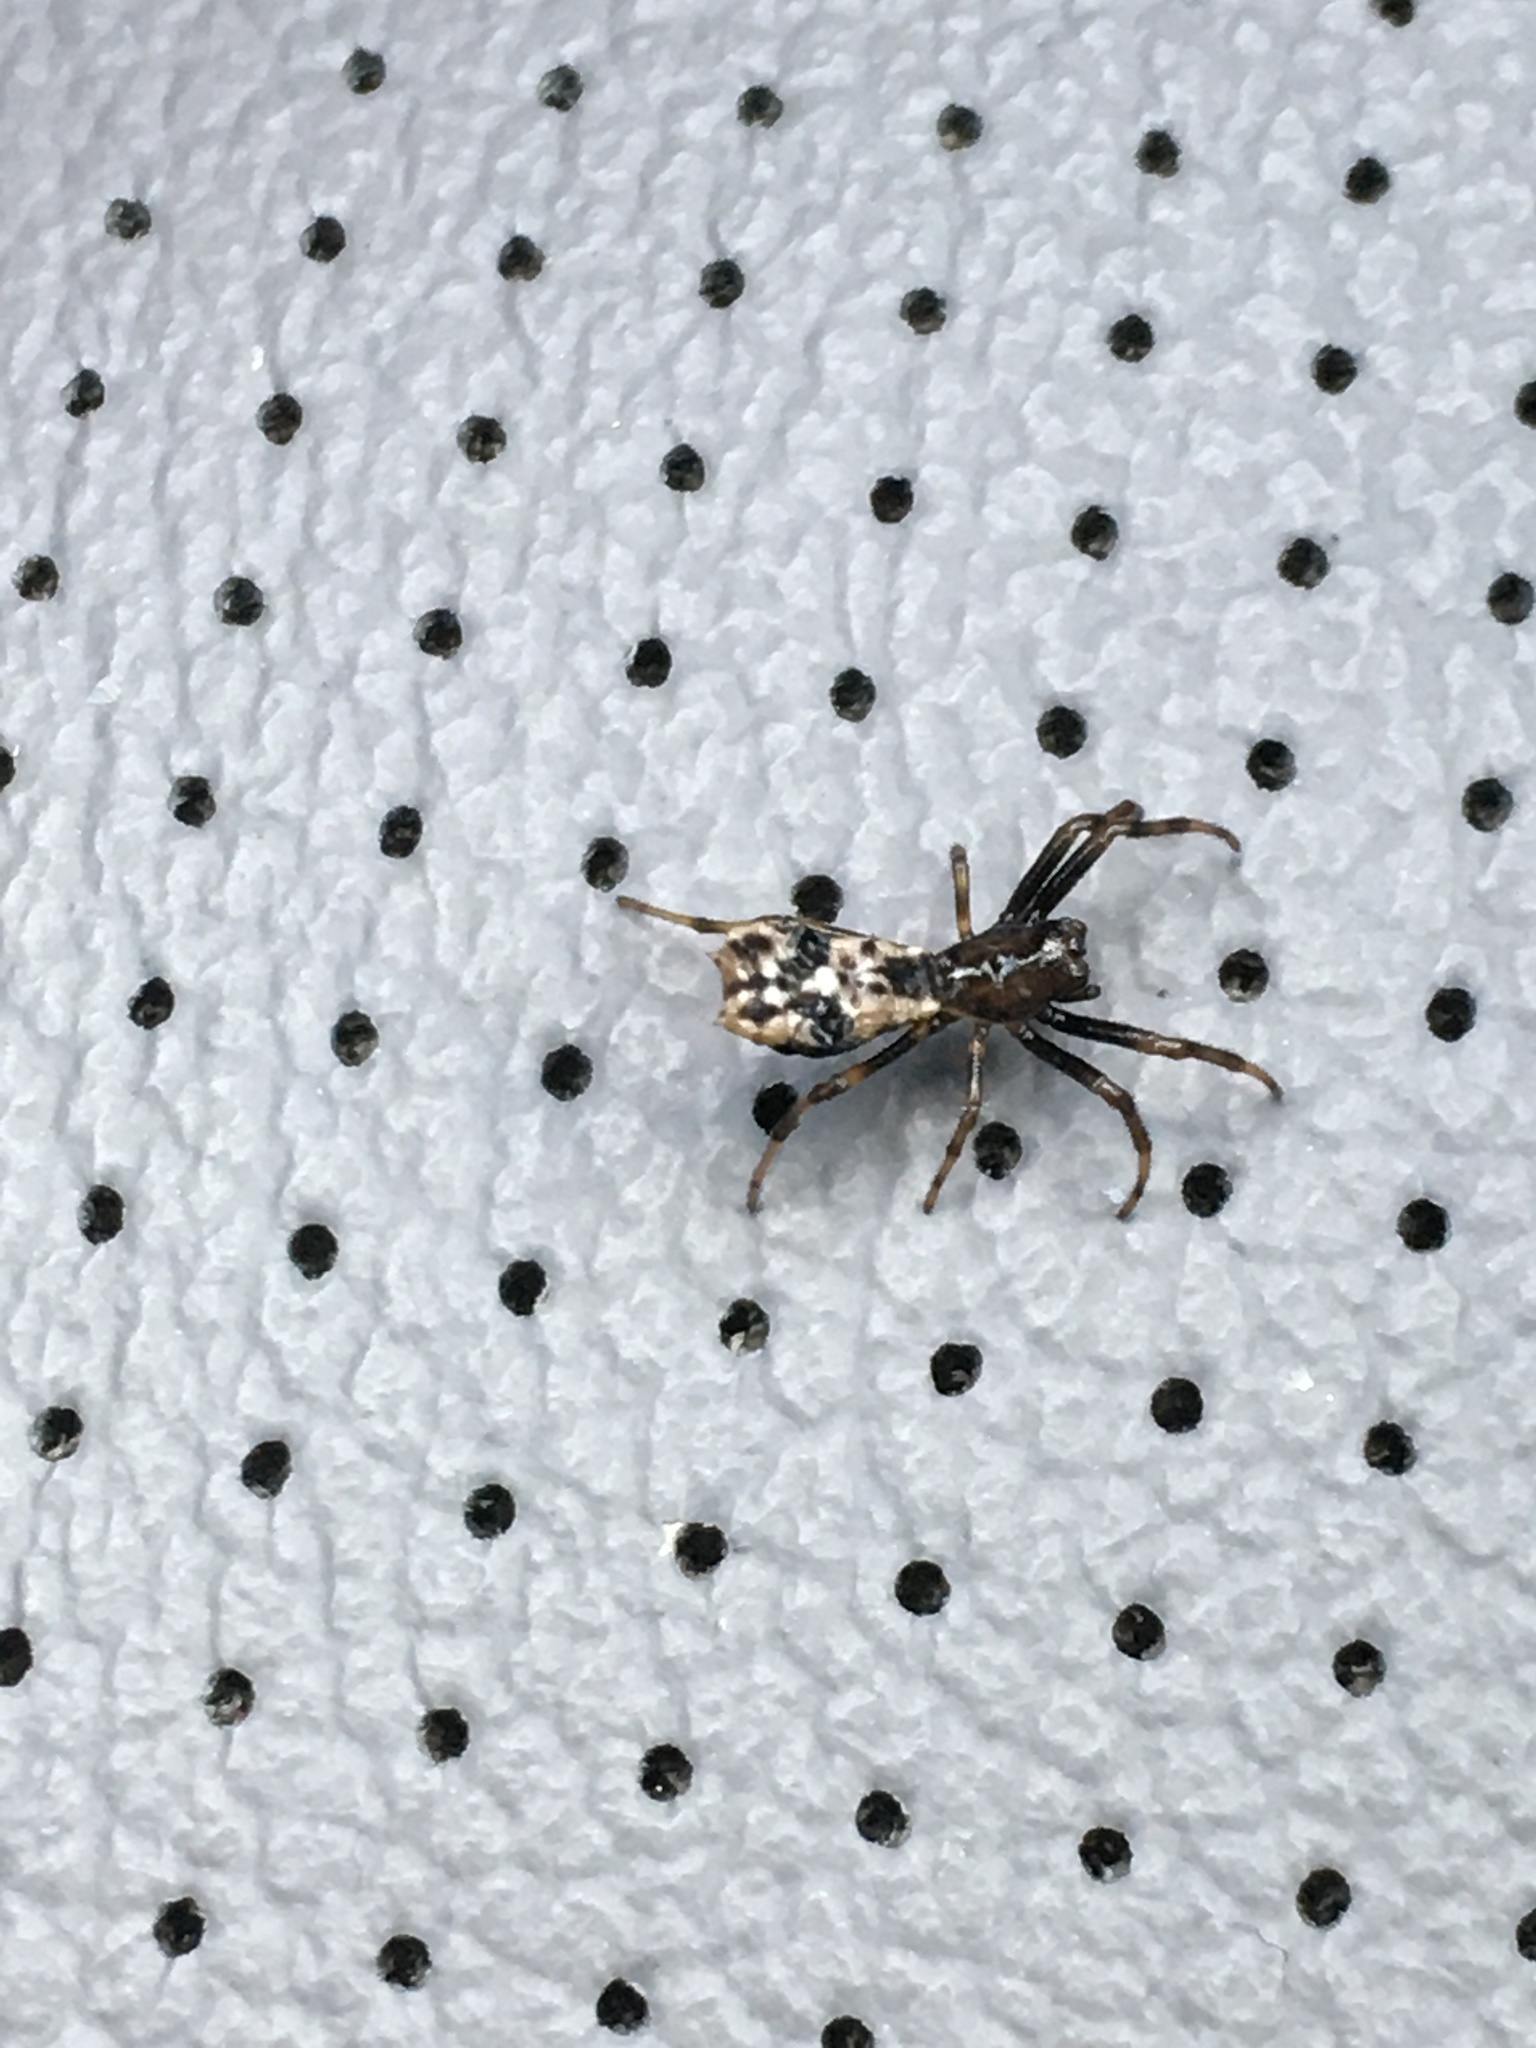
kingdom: Animalia
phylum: Arthropoda
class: Arachnida
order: Araneae
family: Araneidae
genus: Micrathena
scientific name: Micrathena gracilis
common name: Orb weavers
